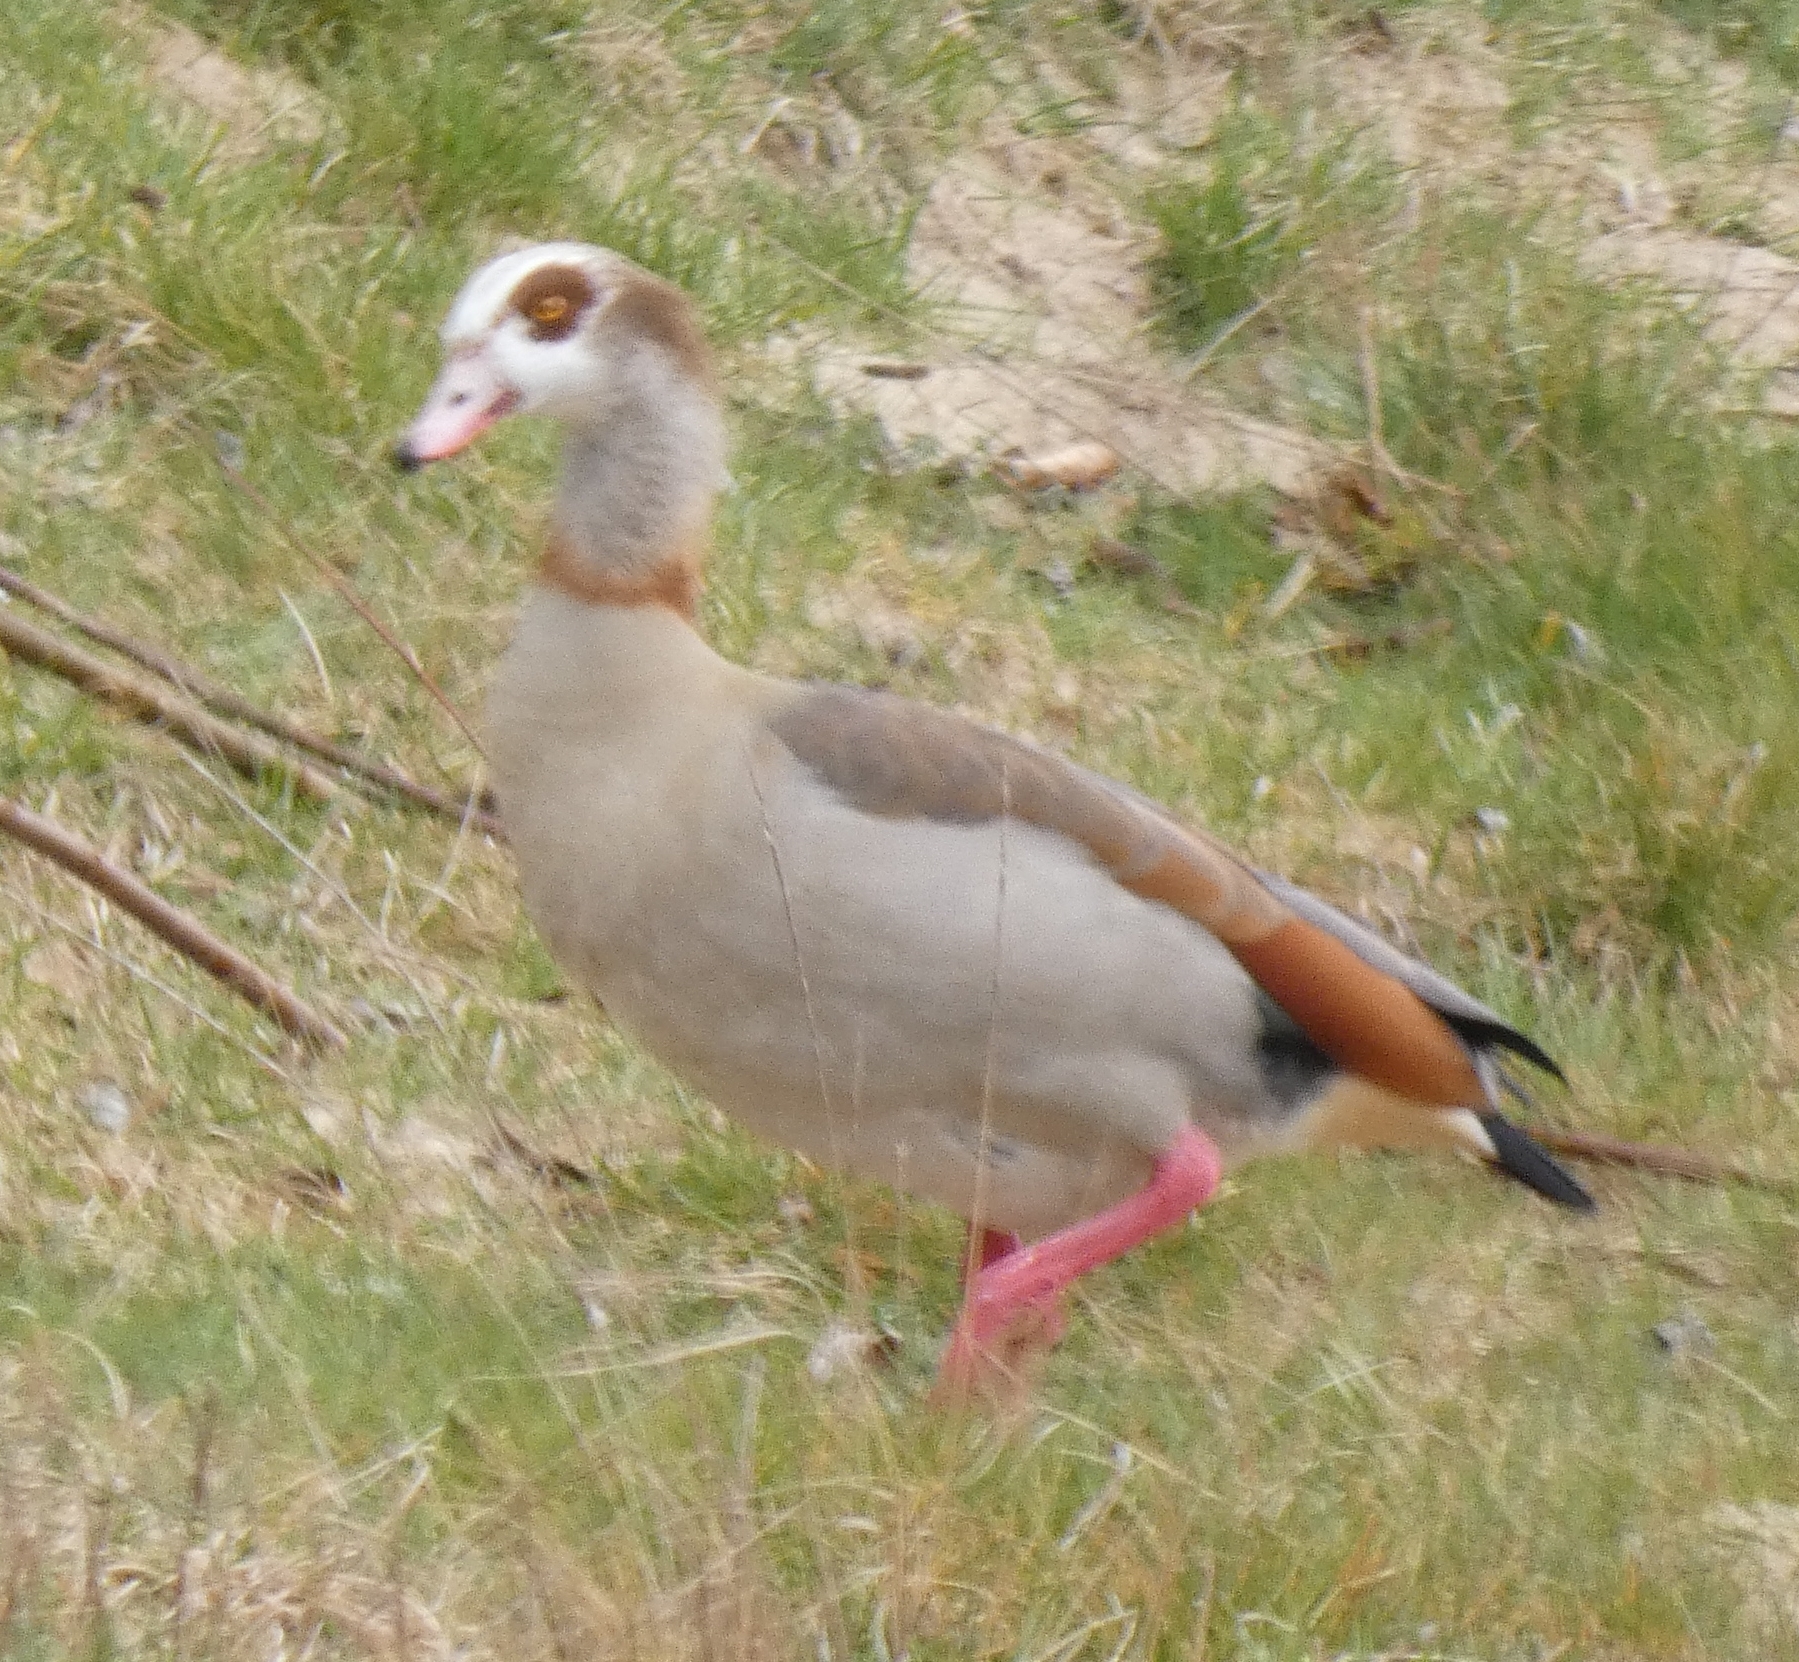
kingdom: Animalia
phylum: Chordata
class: Aves
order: Anseriformes
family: Anatidae
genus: Alopochen
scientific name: Alopochen aegyptiaca
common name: Egyptian goose
